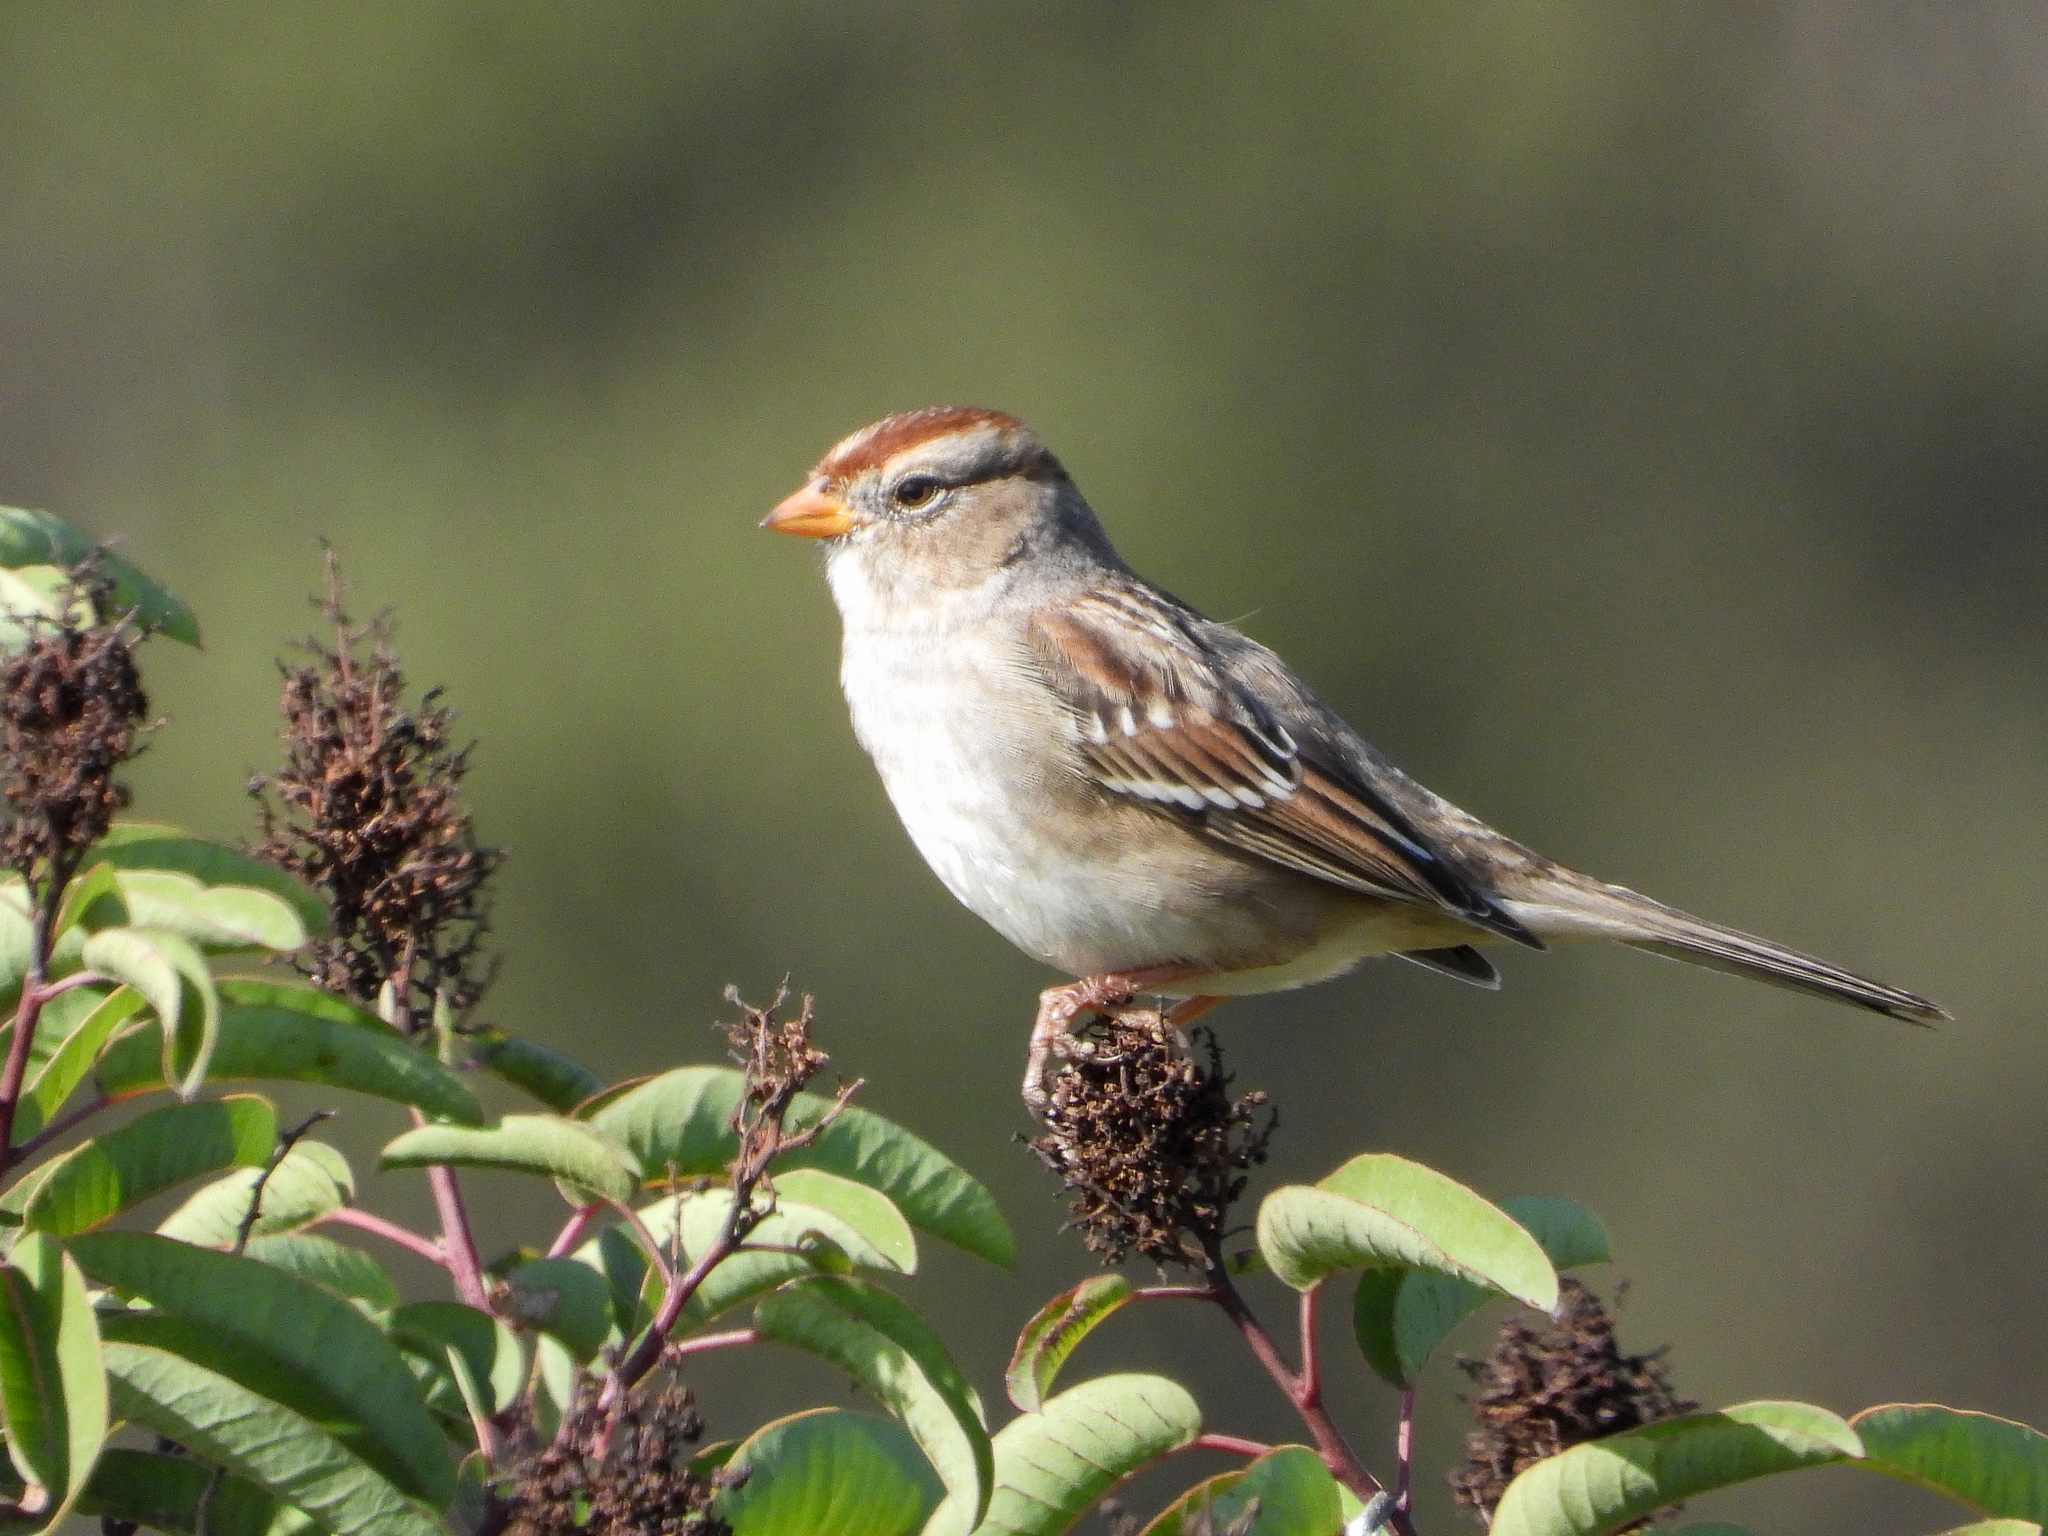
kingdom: Animalia
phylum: Chordata
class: Aves
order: Passeriformes
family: Passerellidae
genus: Zonotrichia
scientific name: Zonotrichia leucophrys
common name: White-crowned sparrow
